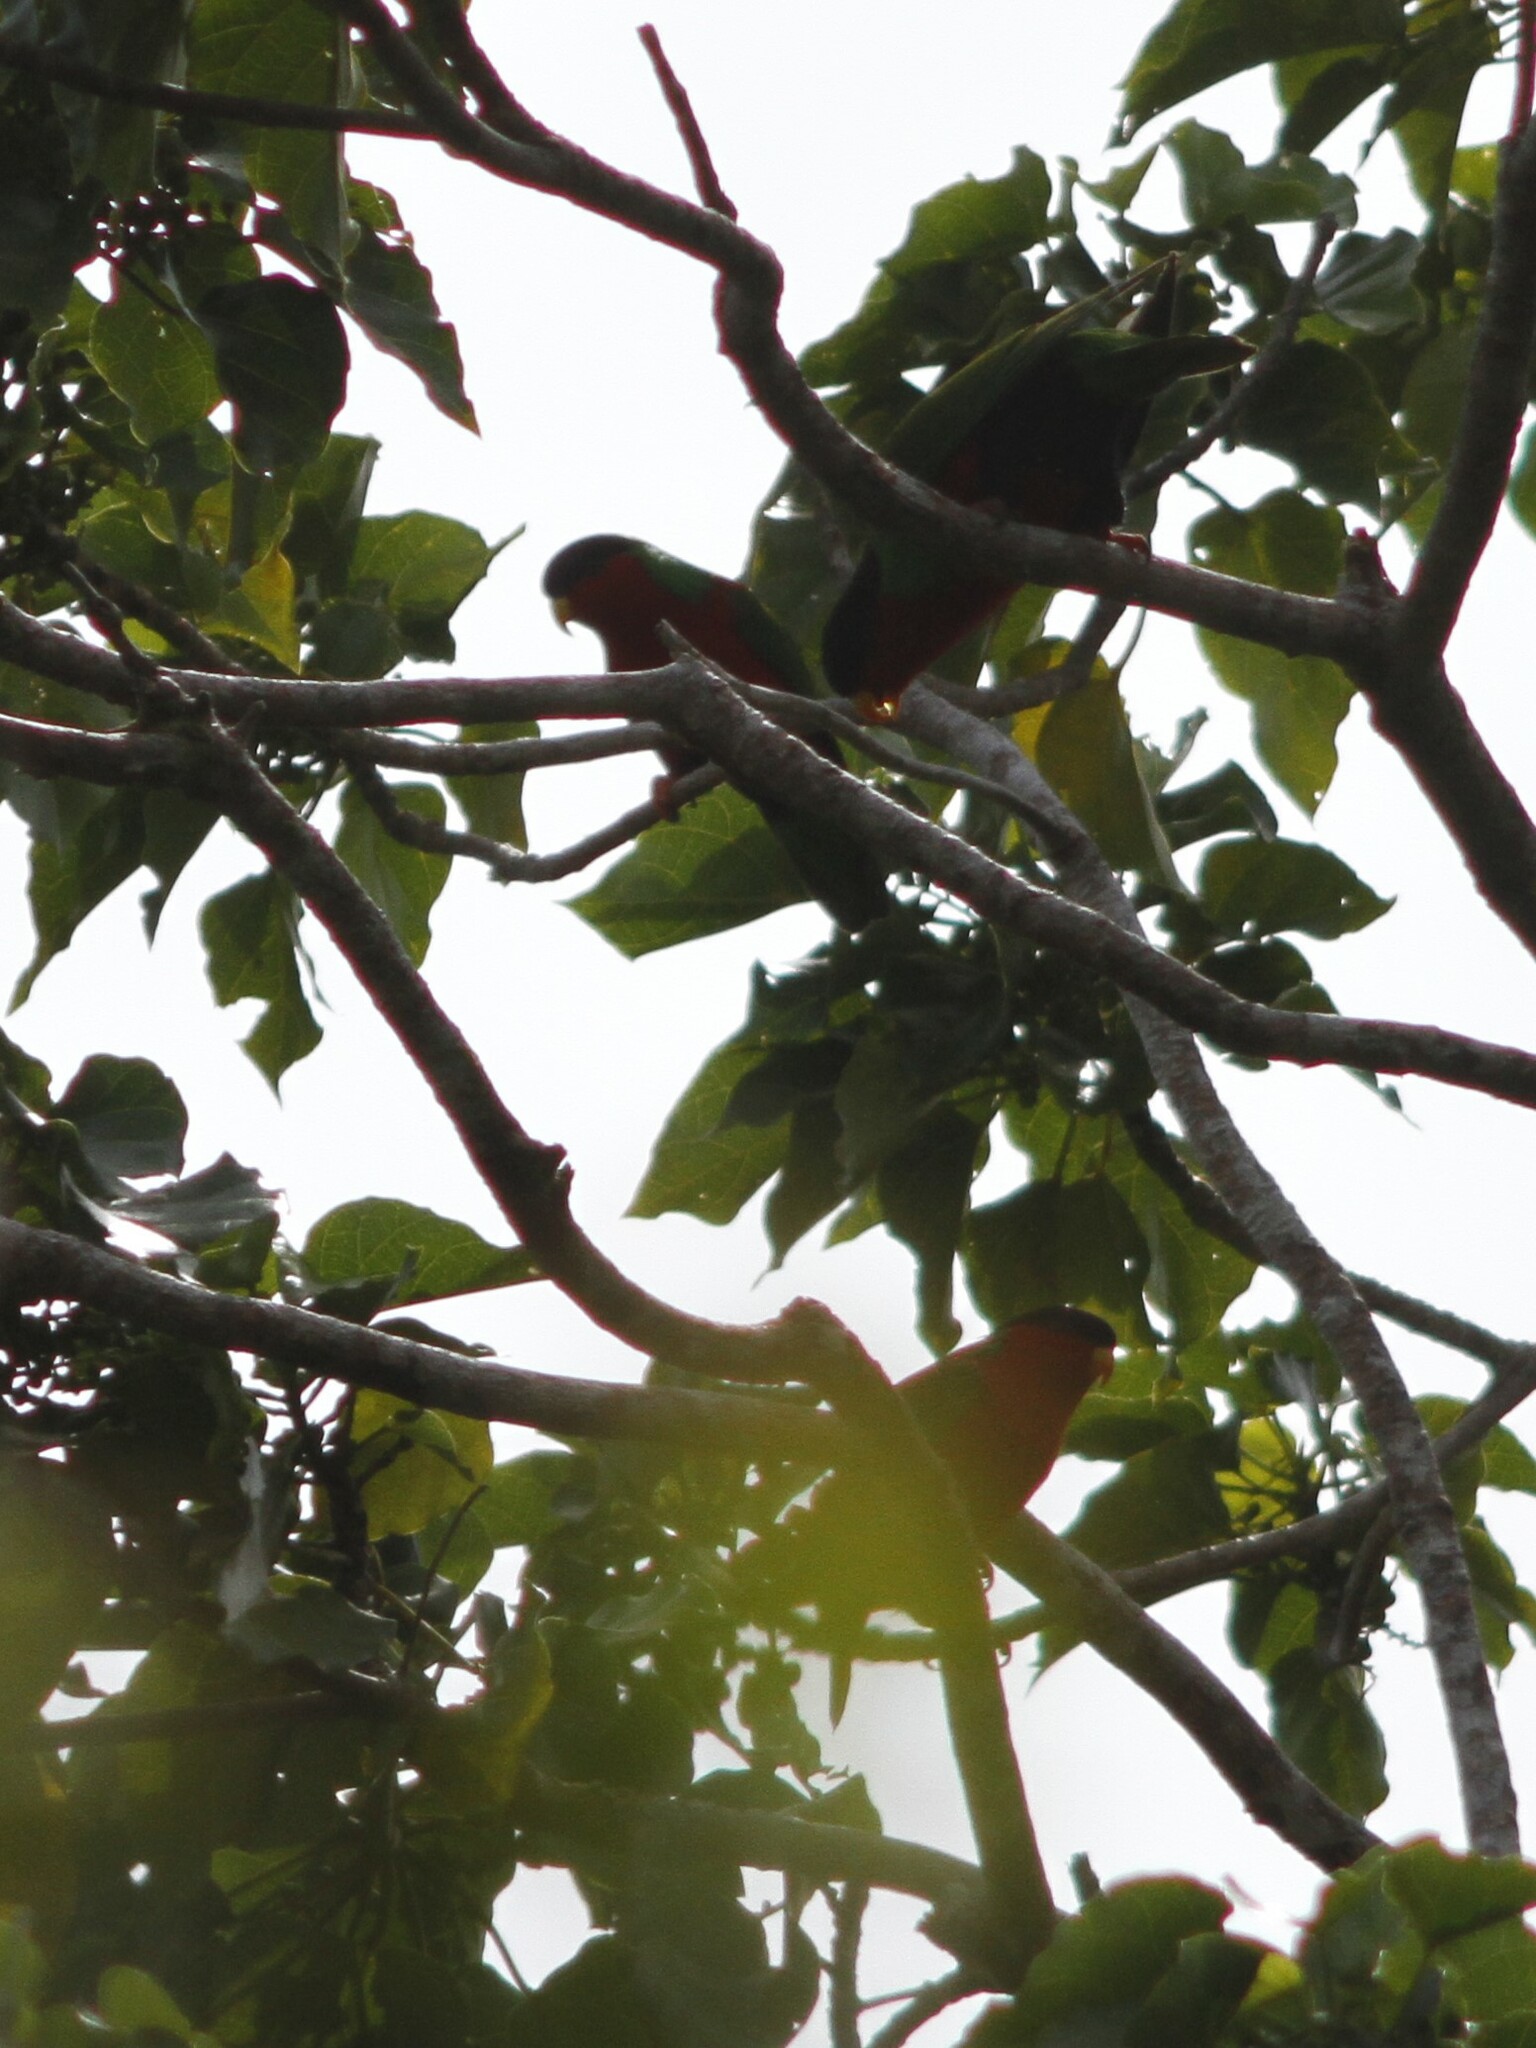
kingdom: Animalia
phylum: Chordata
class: Aves
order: Psittaciformes
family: Psittacidae
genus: Phigys
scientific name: Phigys solitarius
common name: Collared lory
